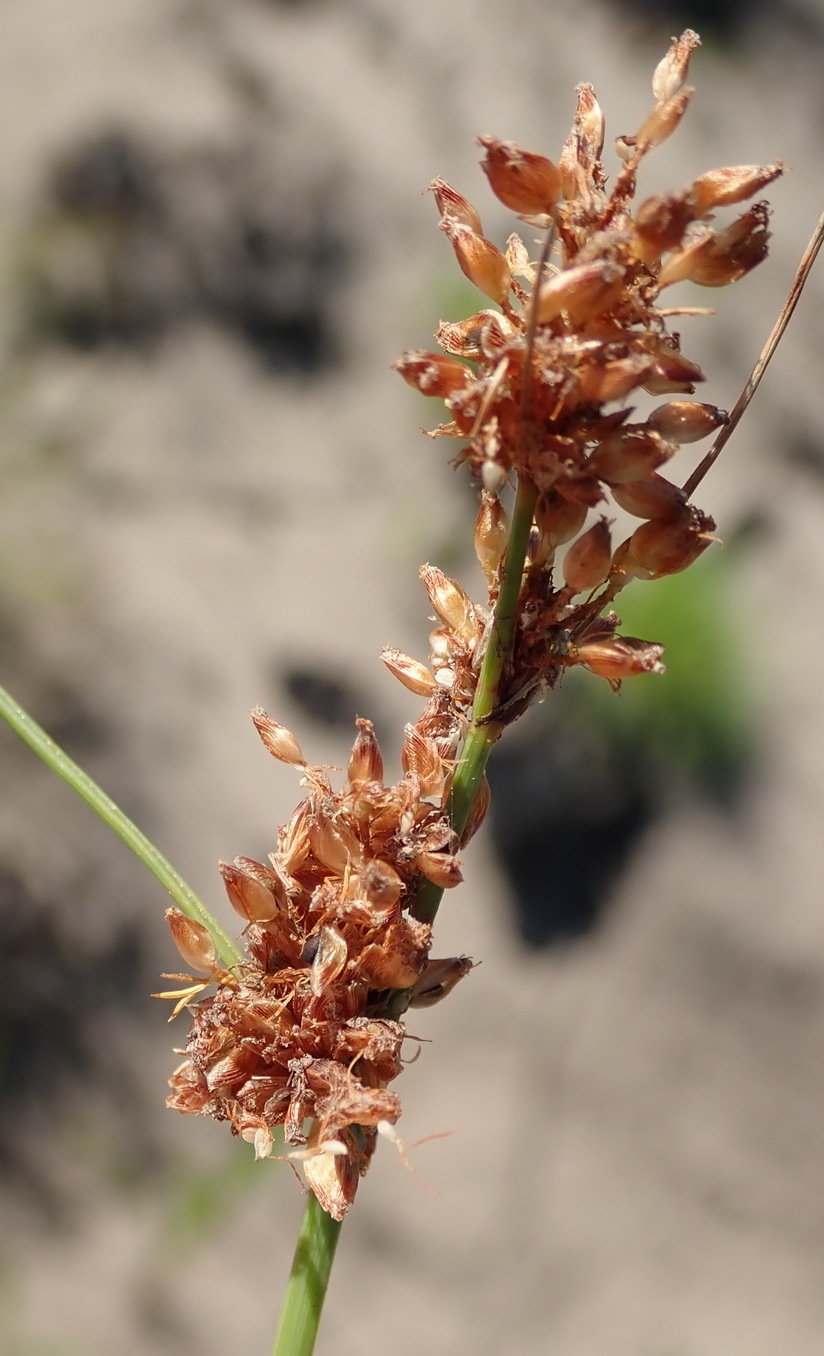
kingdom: Plantae
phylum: Tracheophyta
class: Liliopsida
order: Poales
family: Cyperaceae
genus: Ficinia
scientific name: Ficinia bulbosa
